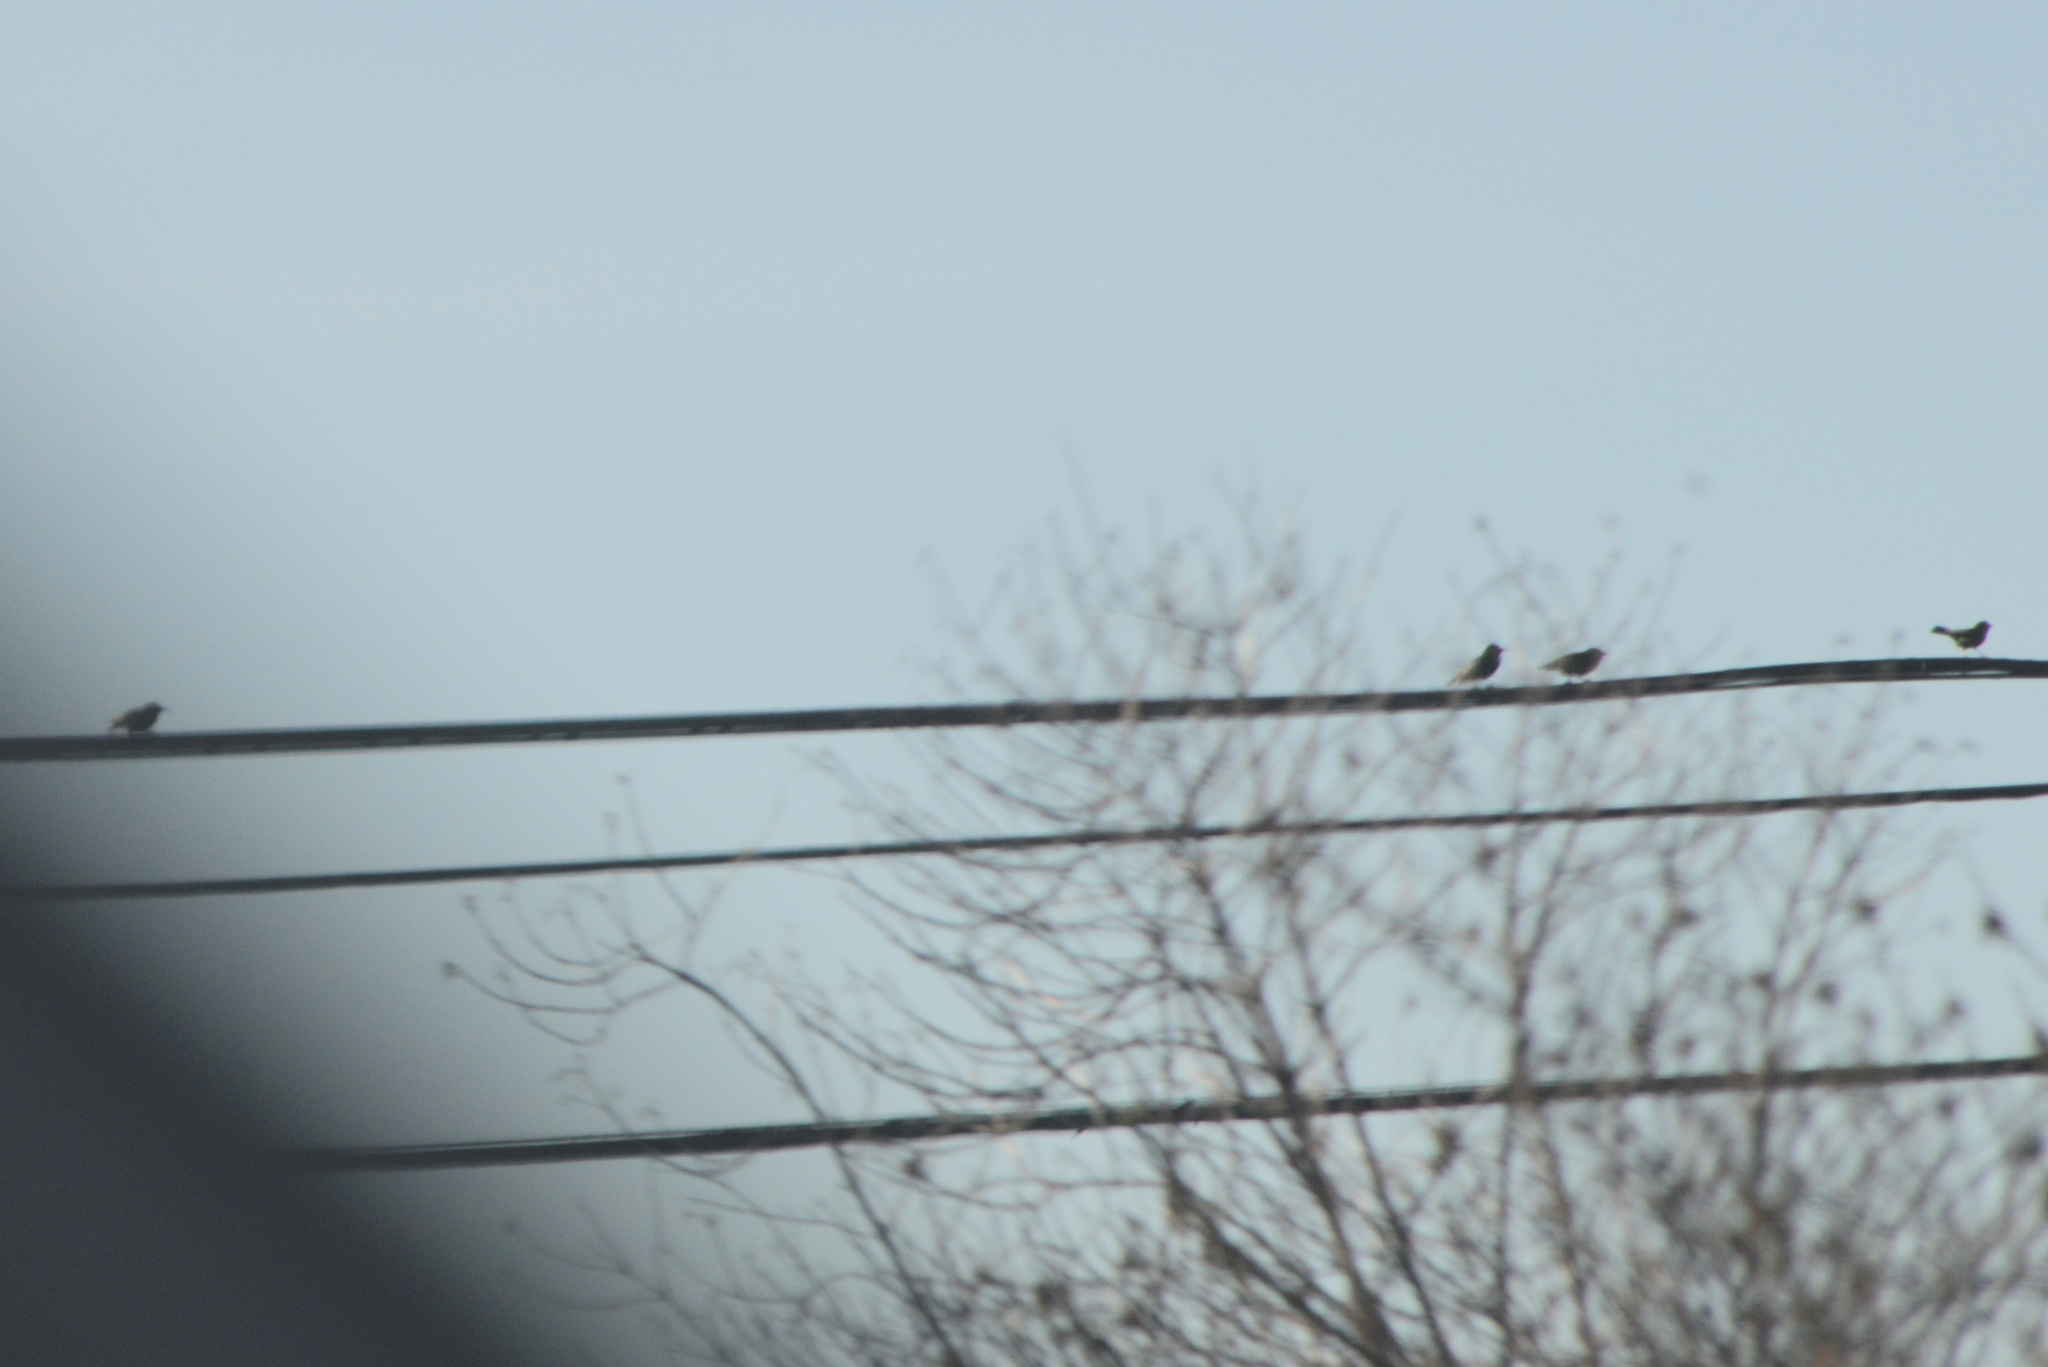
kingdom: Animalia
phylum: Chordata
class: Aves
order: Passeriformes
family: Sturnidae
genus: Sturnus
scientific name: Sturnus vulgaris
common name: Common starling
